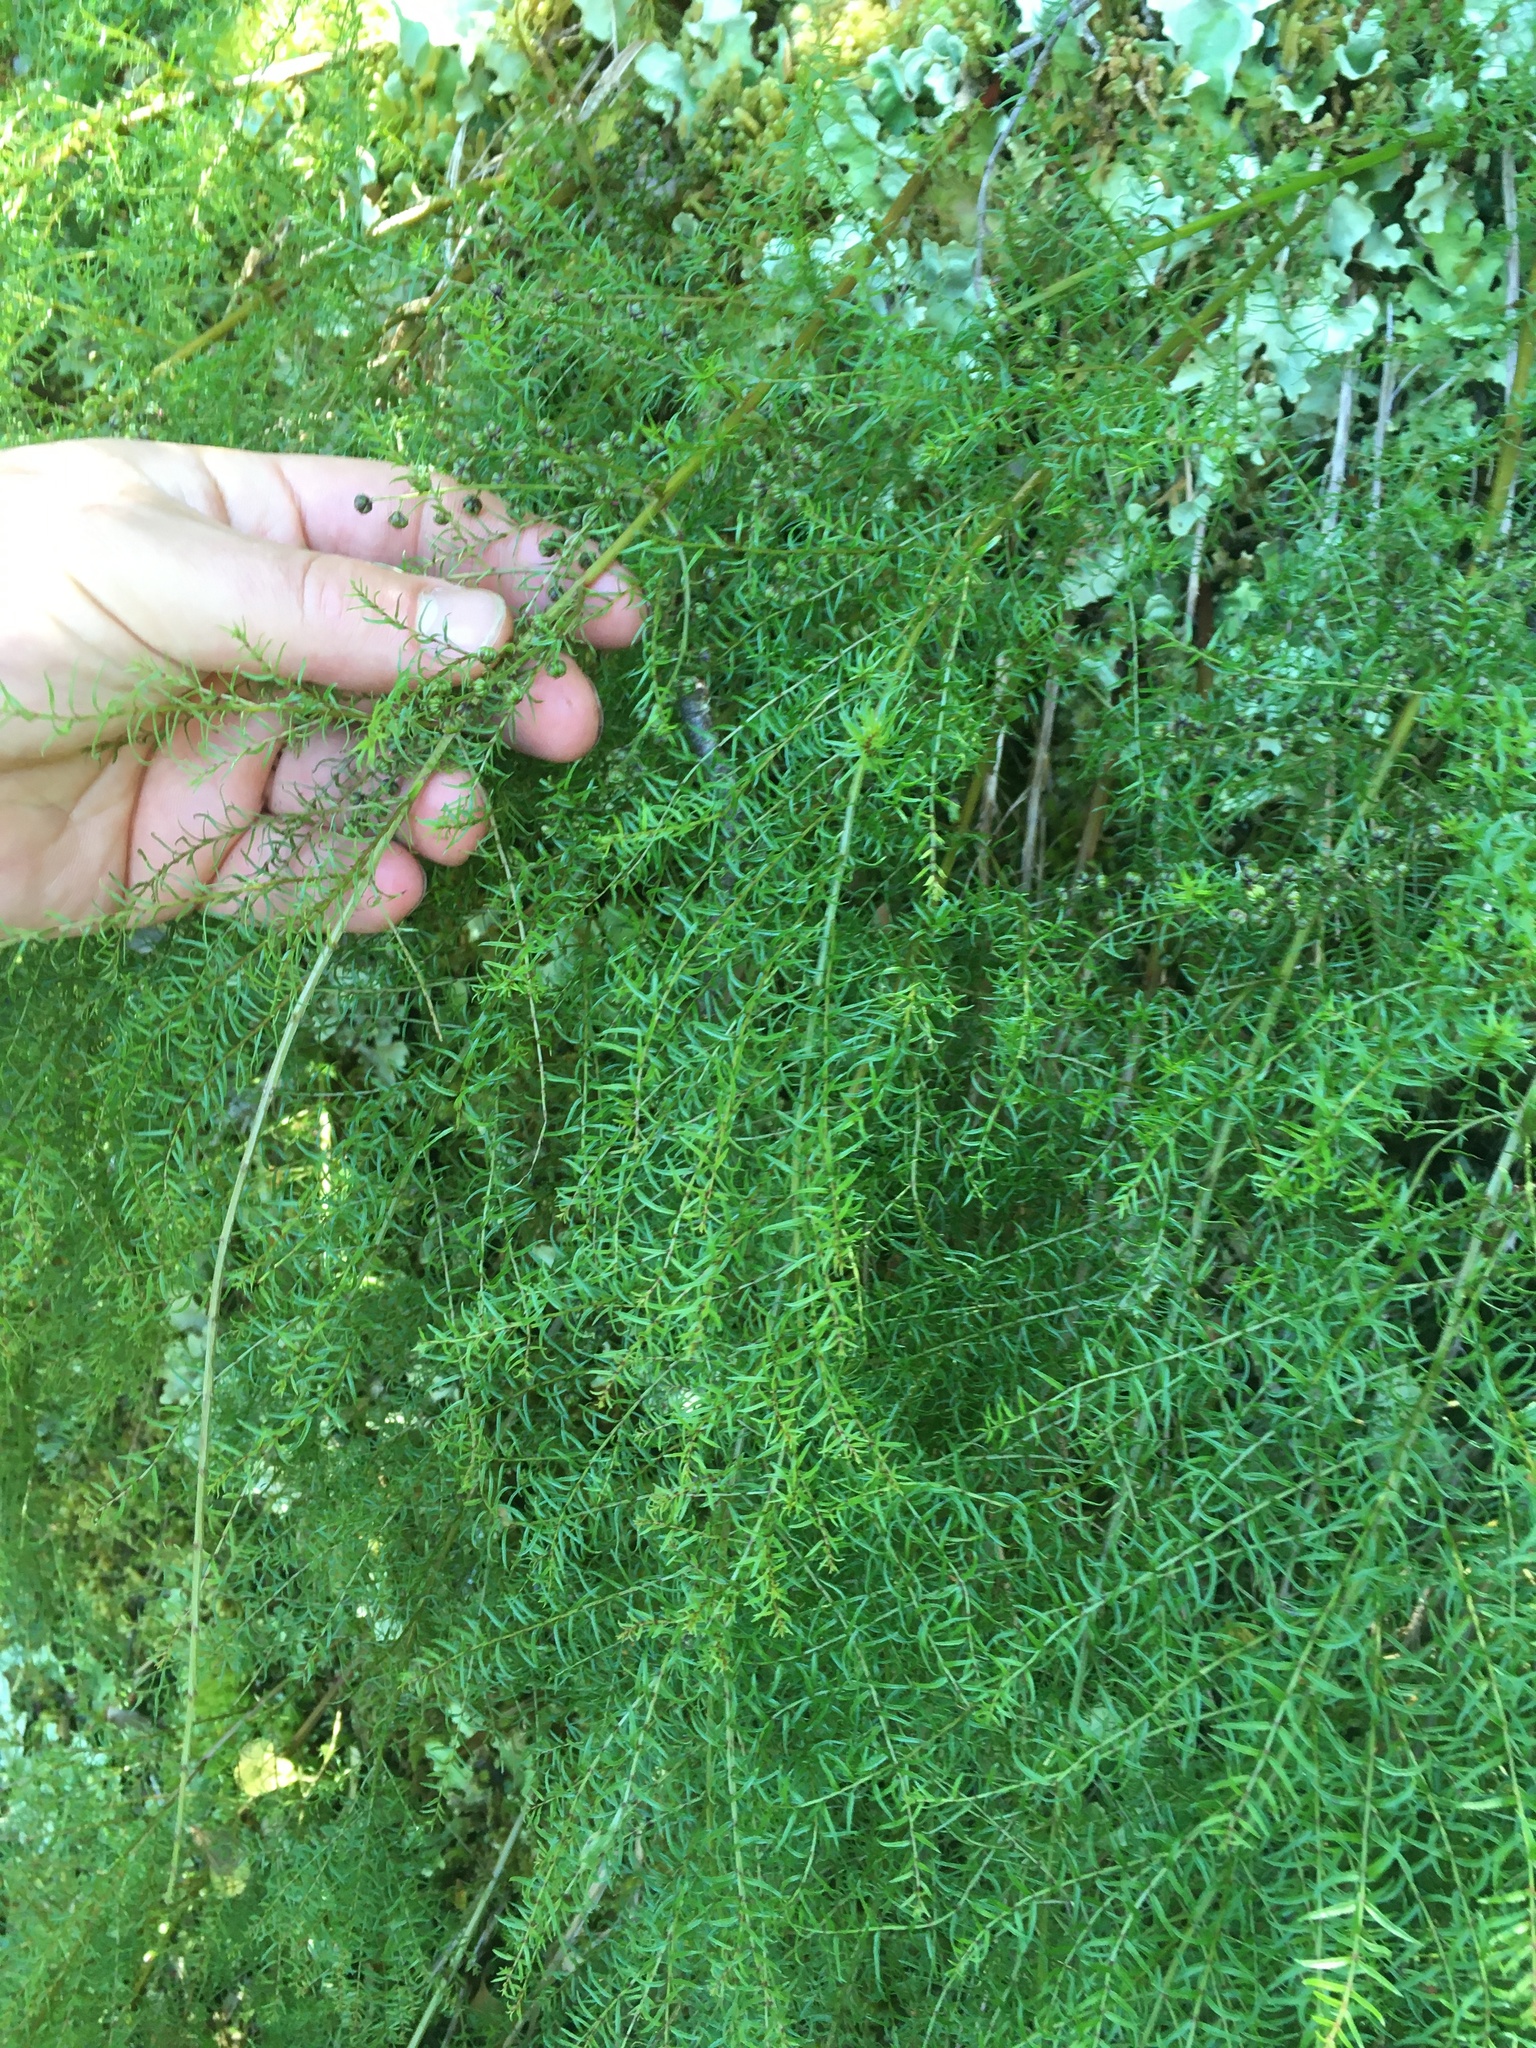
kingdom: Plantae
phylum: Tracheophyta
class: Magnoliopsida
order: Cucurbitales
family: Coriariaceae
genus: Coriaria
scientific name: Coriaria plumosa
